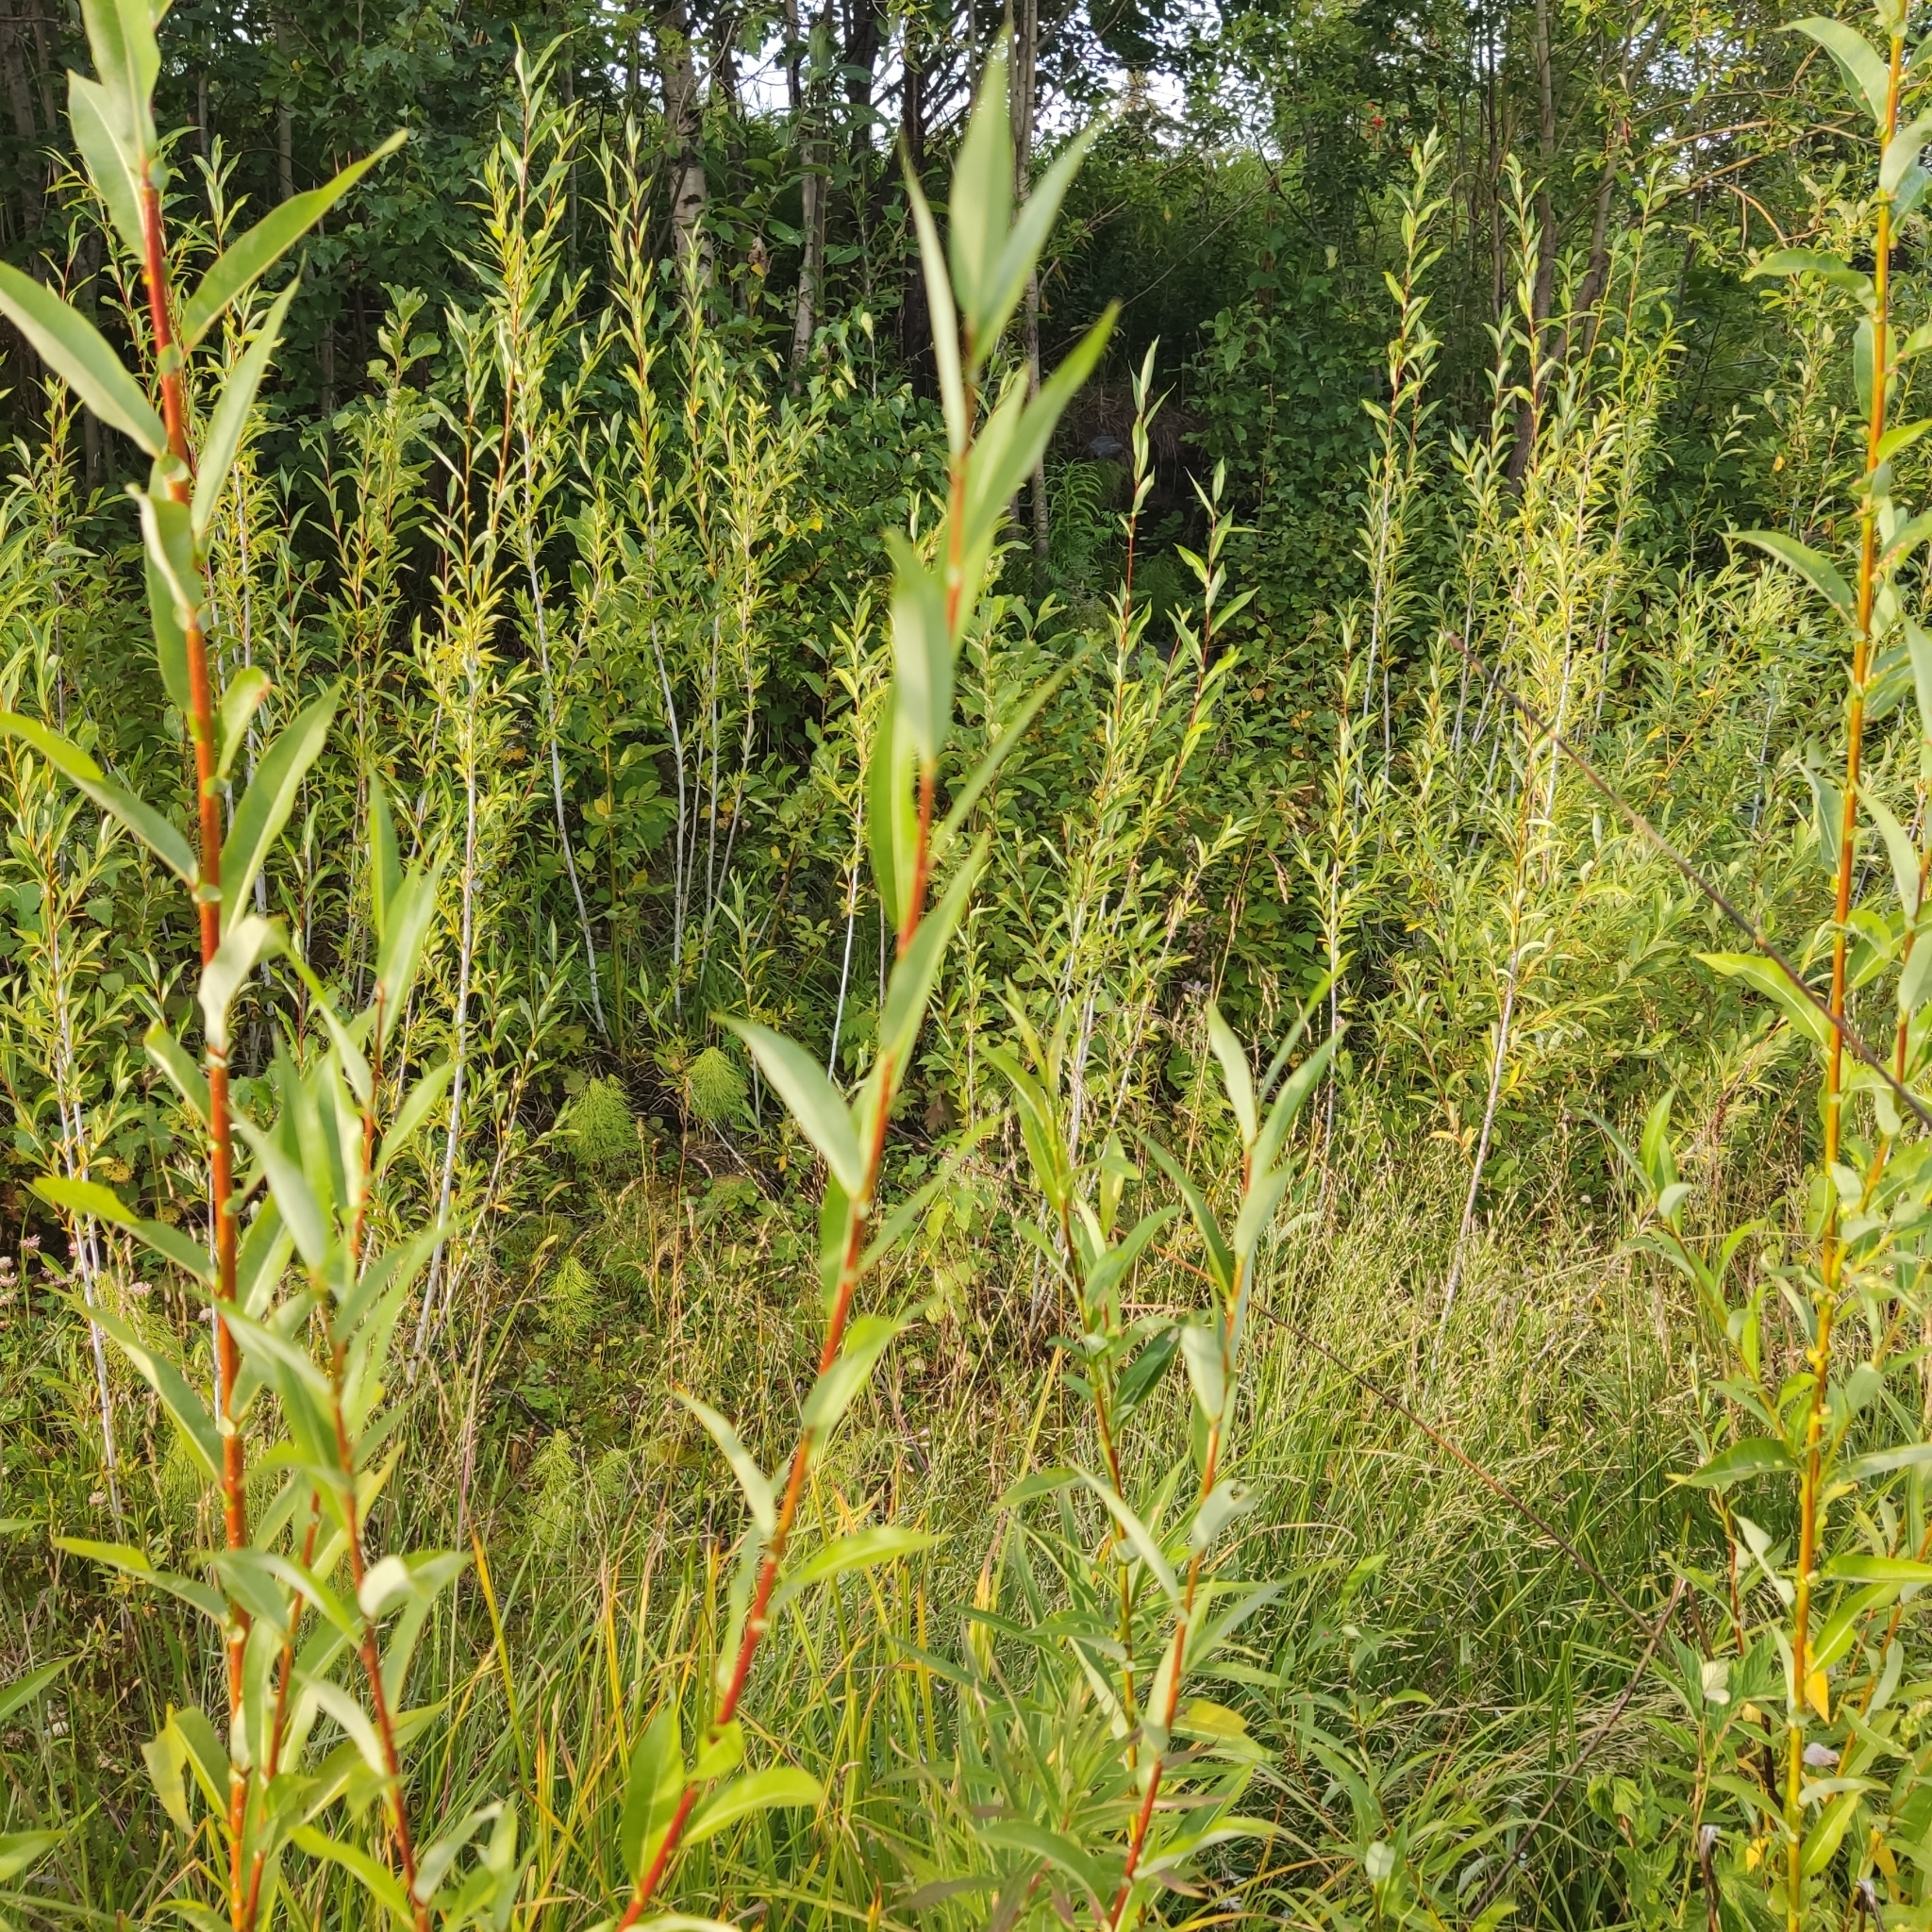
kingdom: Plantae
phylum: Tracheophyta
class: Magnoliopsida
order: Malpighiales
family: Salicaceae
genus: Salix
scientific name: Salix rorida
